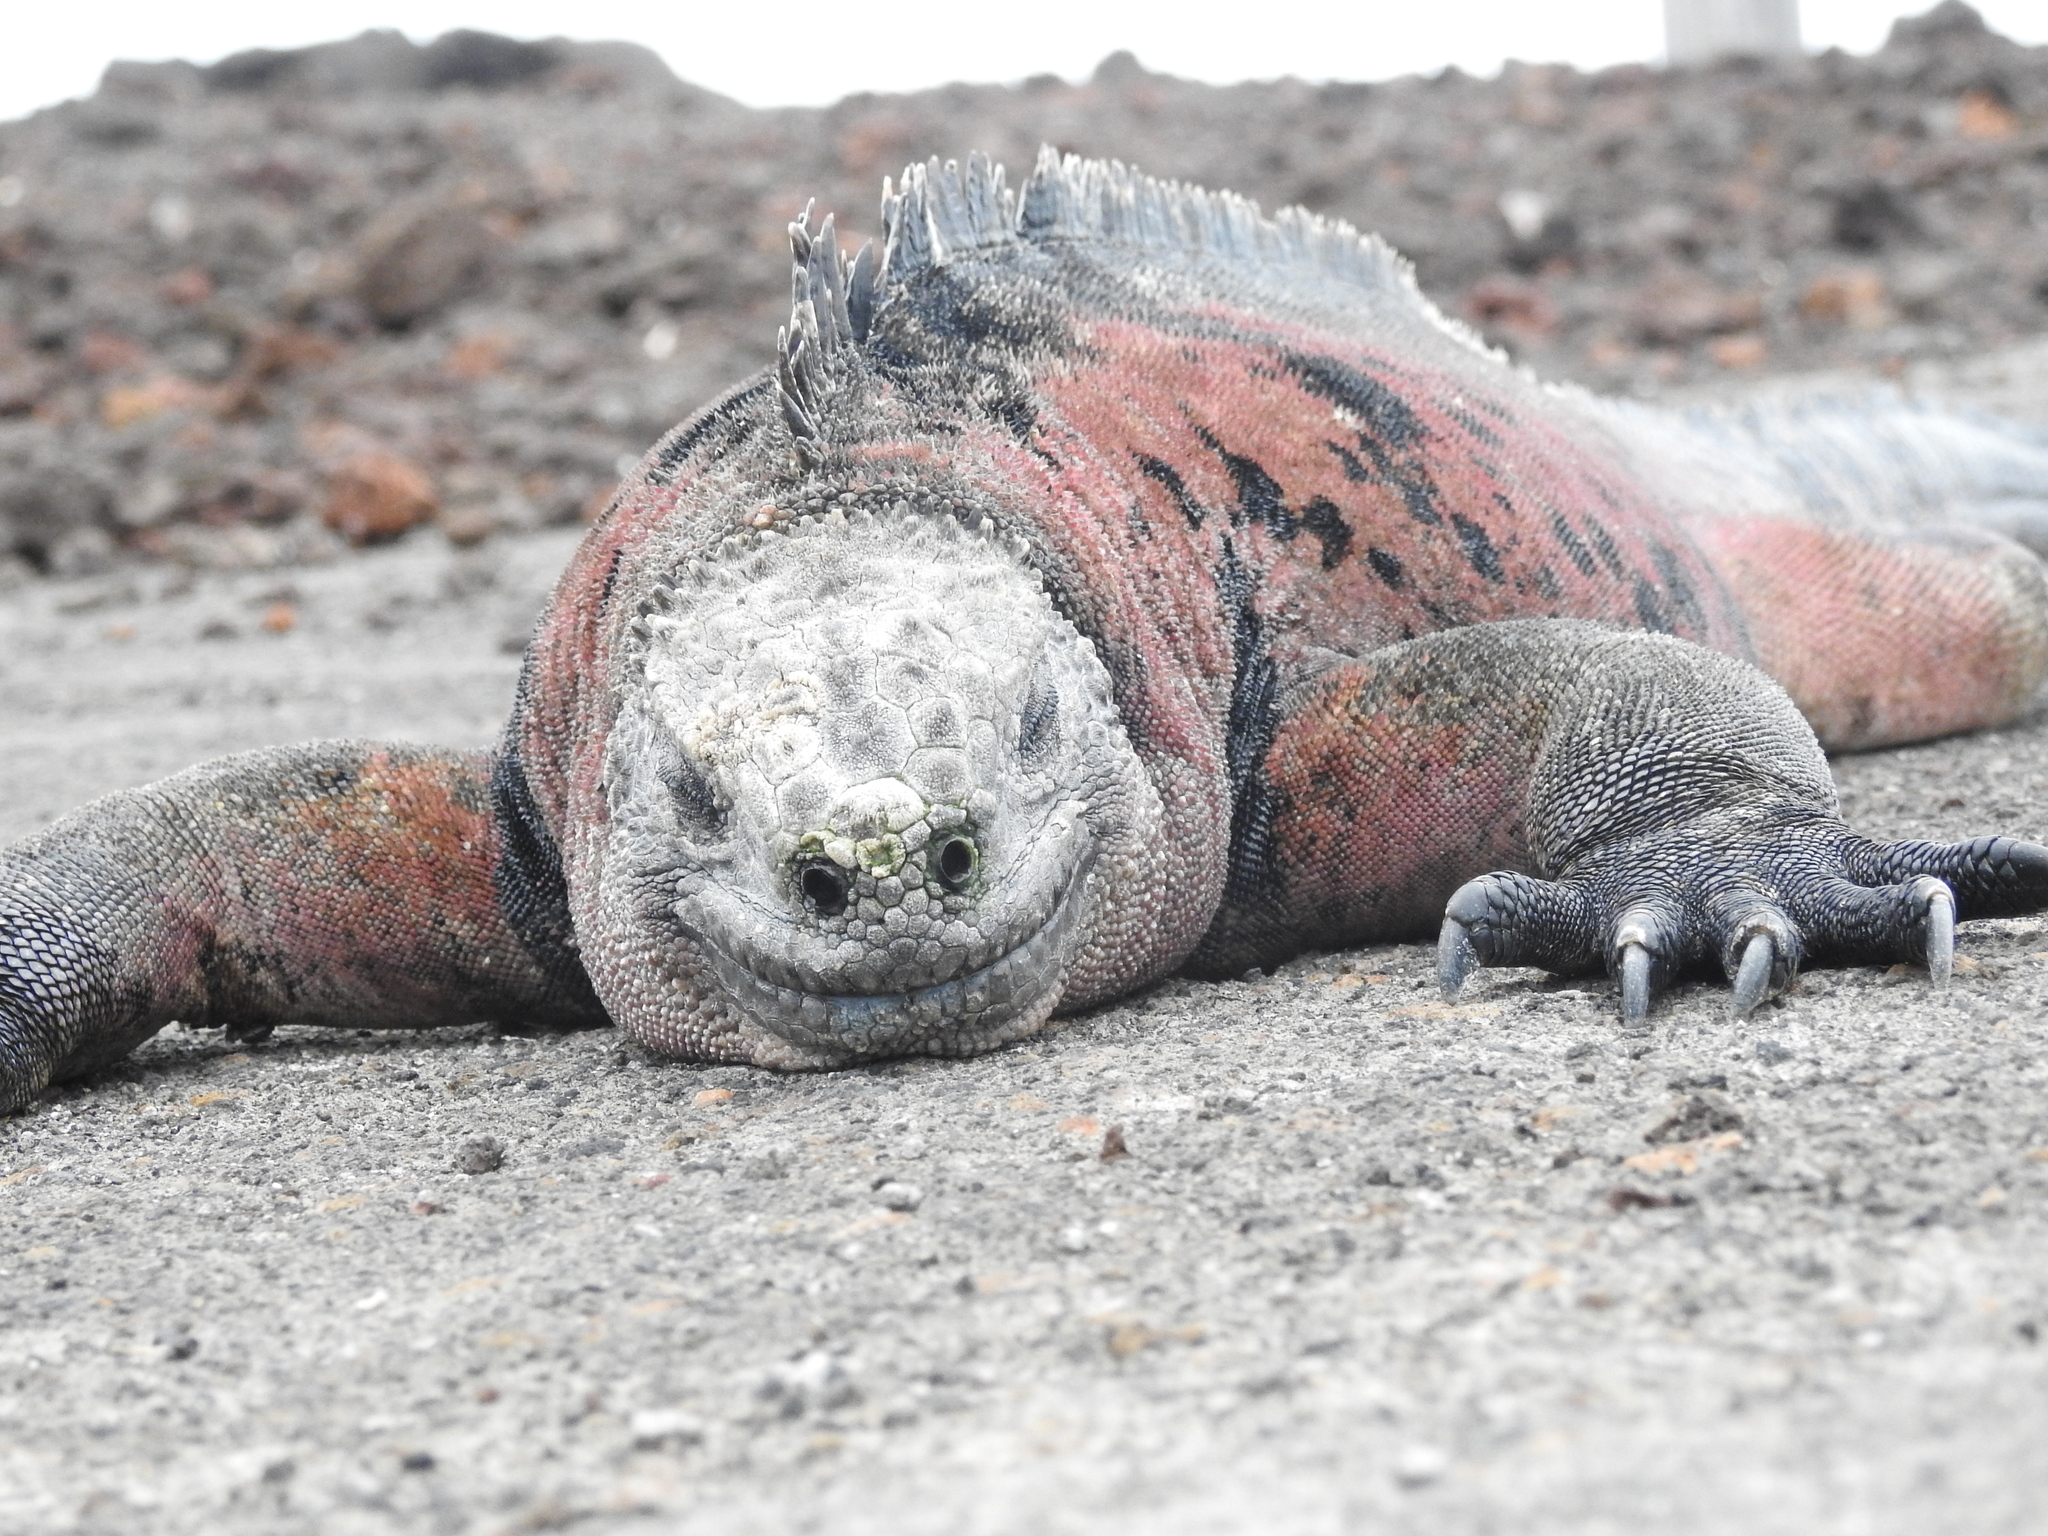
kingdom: Animalia
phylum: Chordata
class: Squamata
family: Iguanidae
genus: Amblyrhynchus
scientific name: Amblyrhynchus cristatus
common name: Marine iguana
